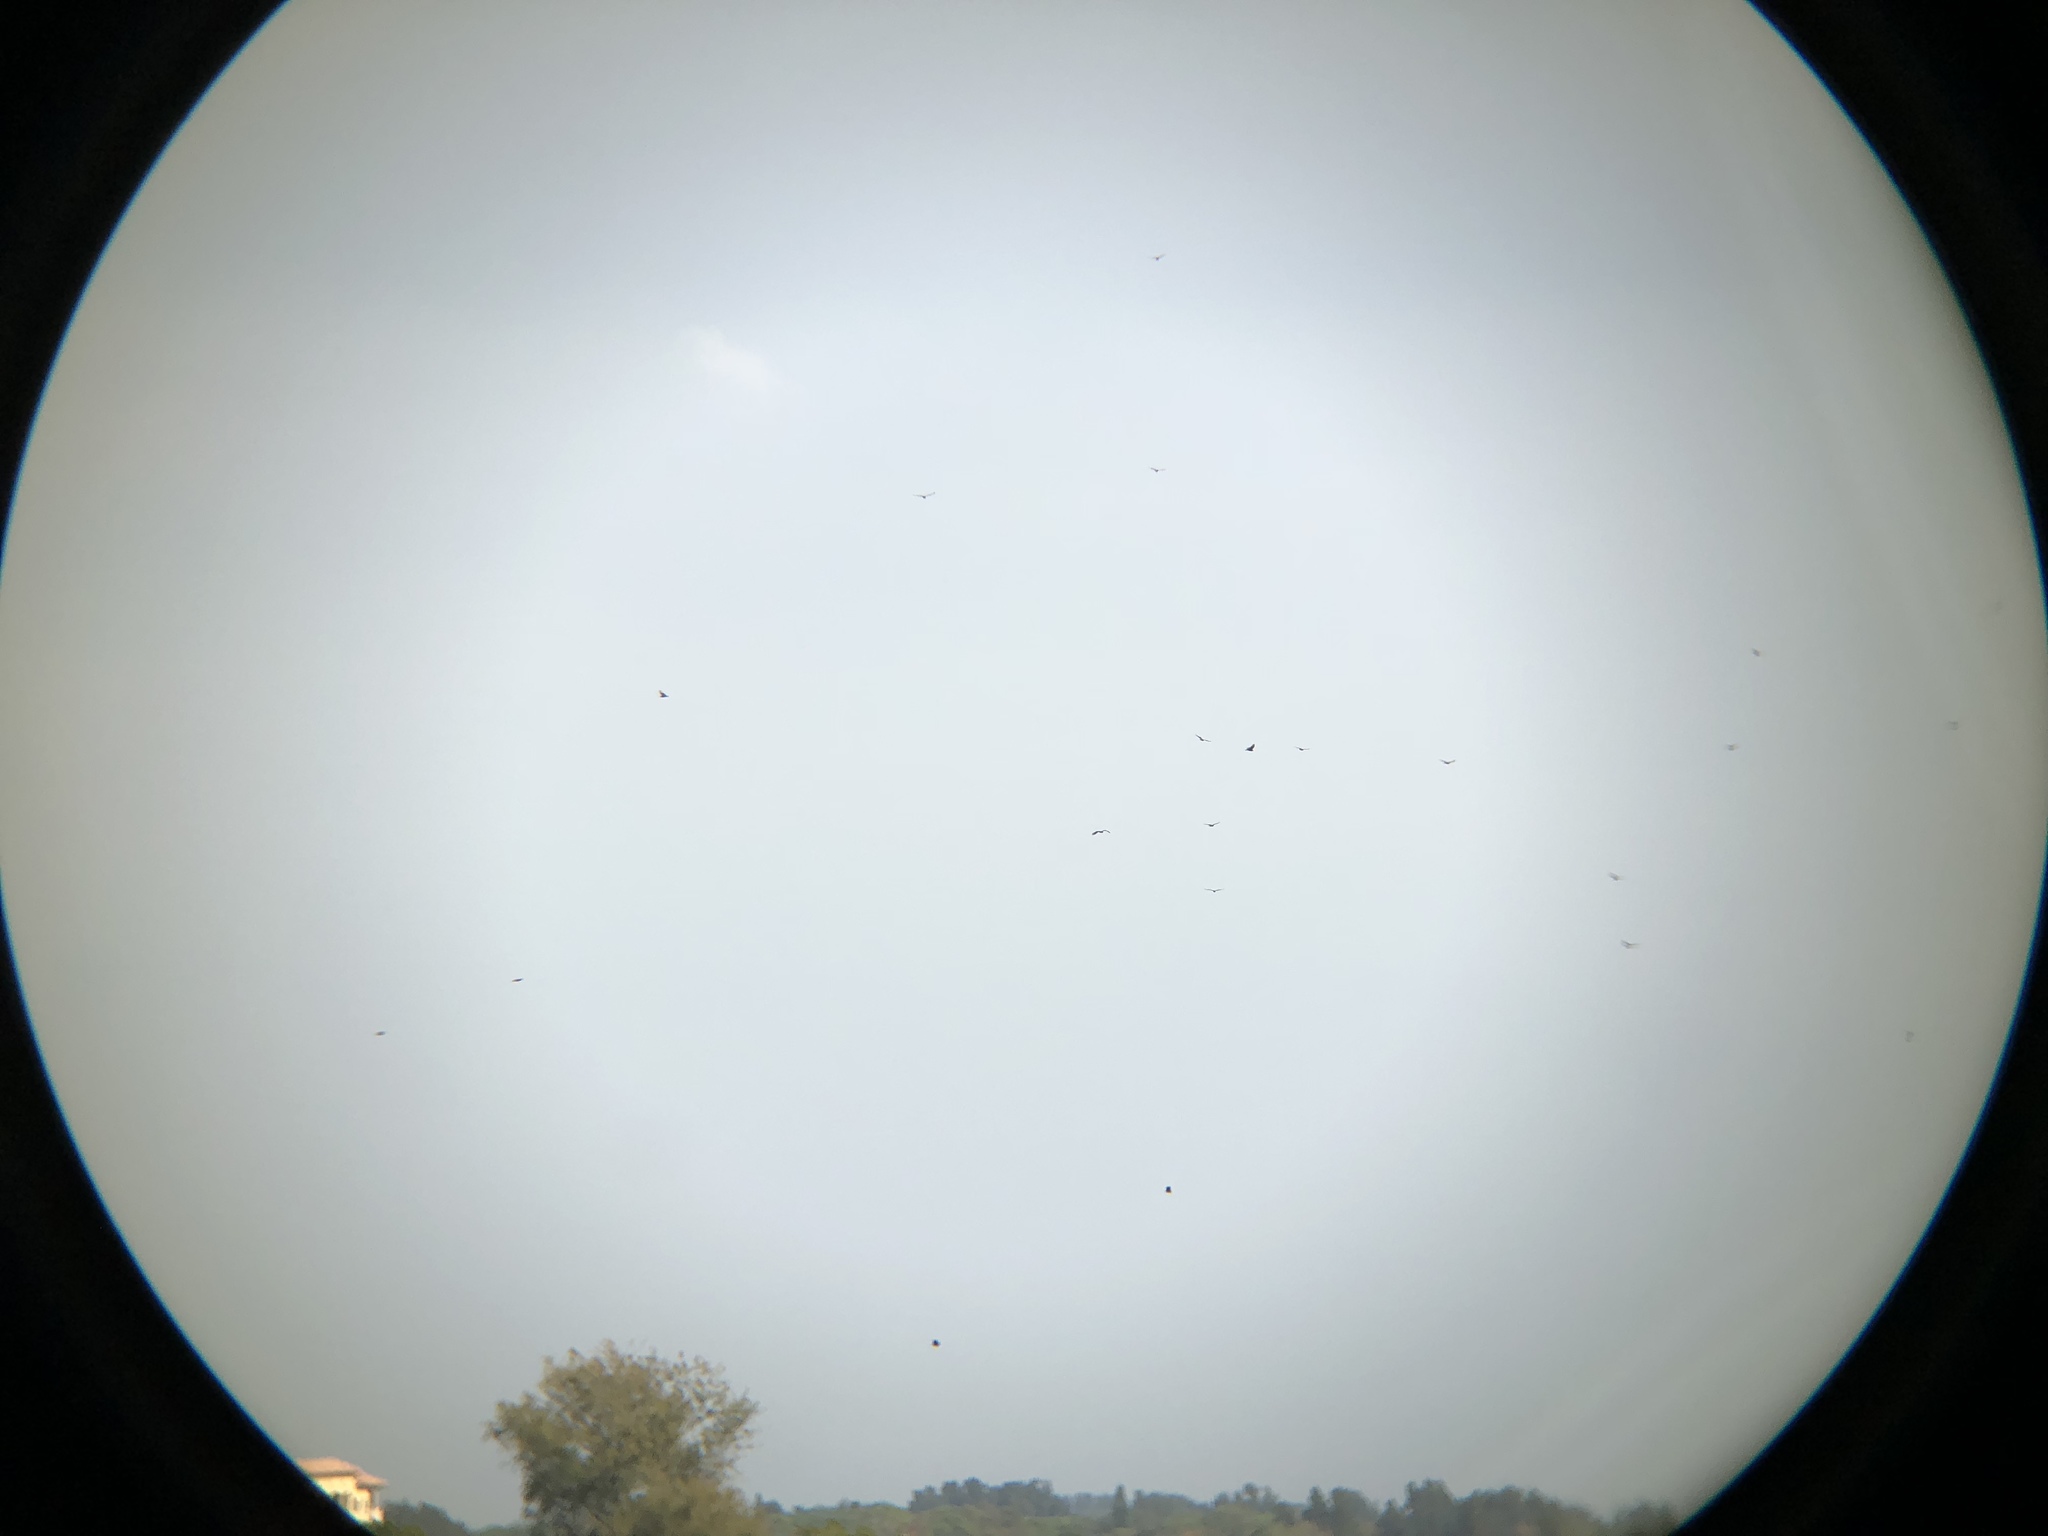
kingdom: Animalia
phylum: Chordata
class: Aves
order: Accipitriformes
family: Cathartidae
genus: Coragyps
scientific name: Coragyps atratus
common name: Black vulture
